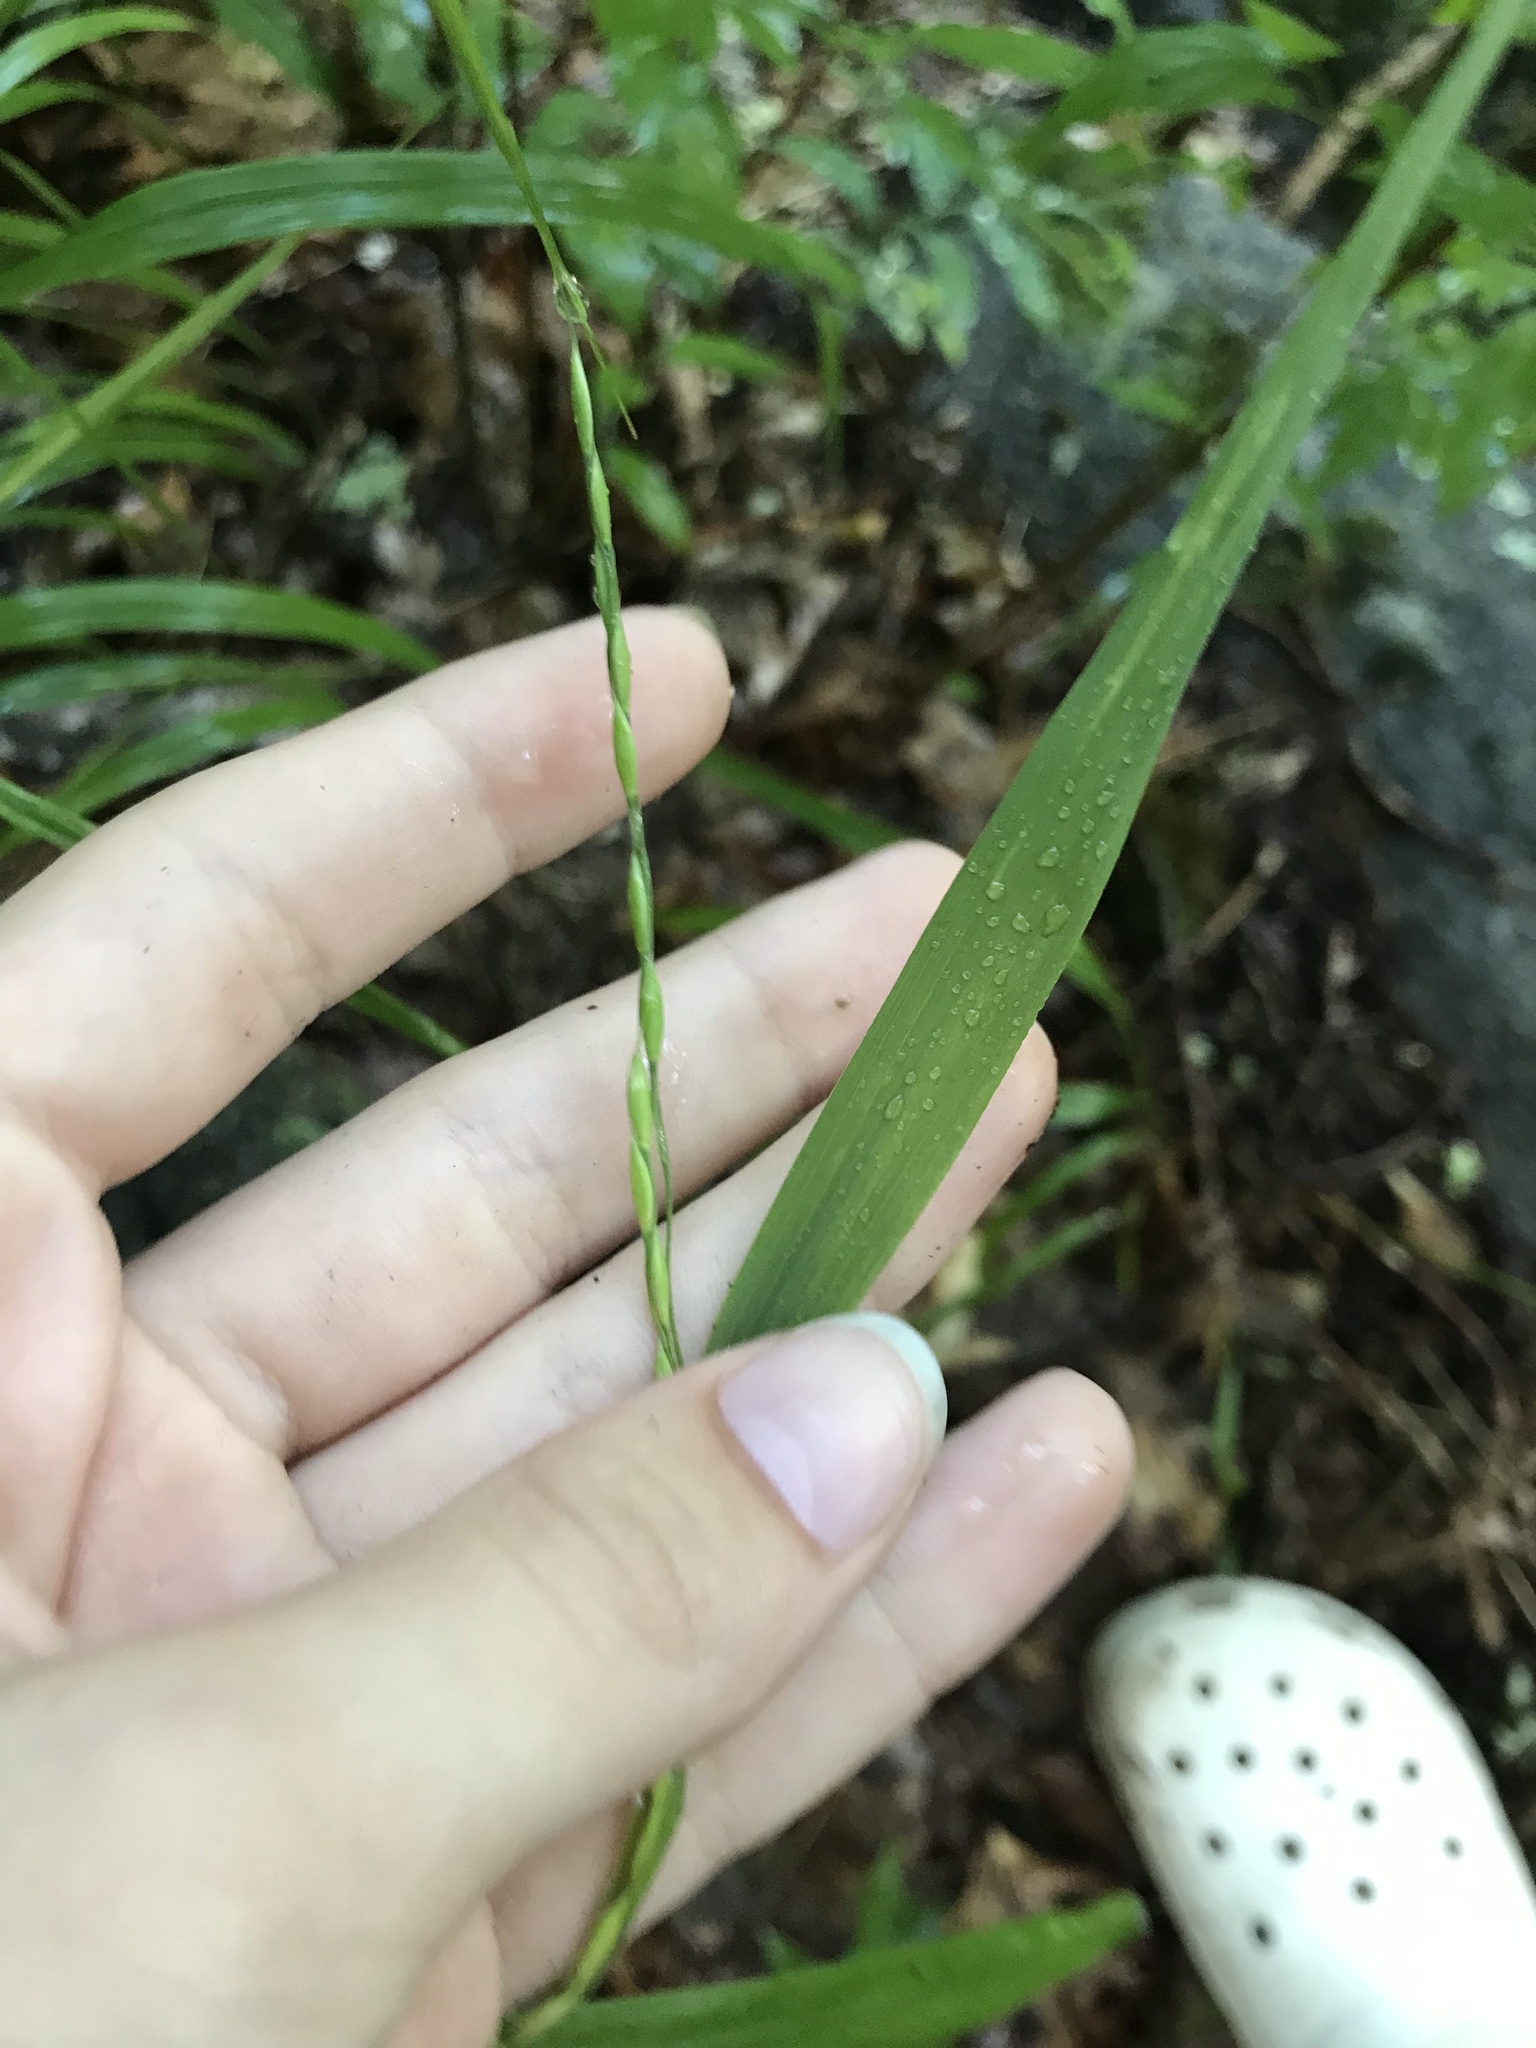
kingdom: Plantae
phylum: Tracheophyta
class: Liliopsida
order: Poales
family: Poaceae
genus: Patis
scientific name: Patis racemosa
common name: Black-fruited mountain rice
